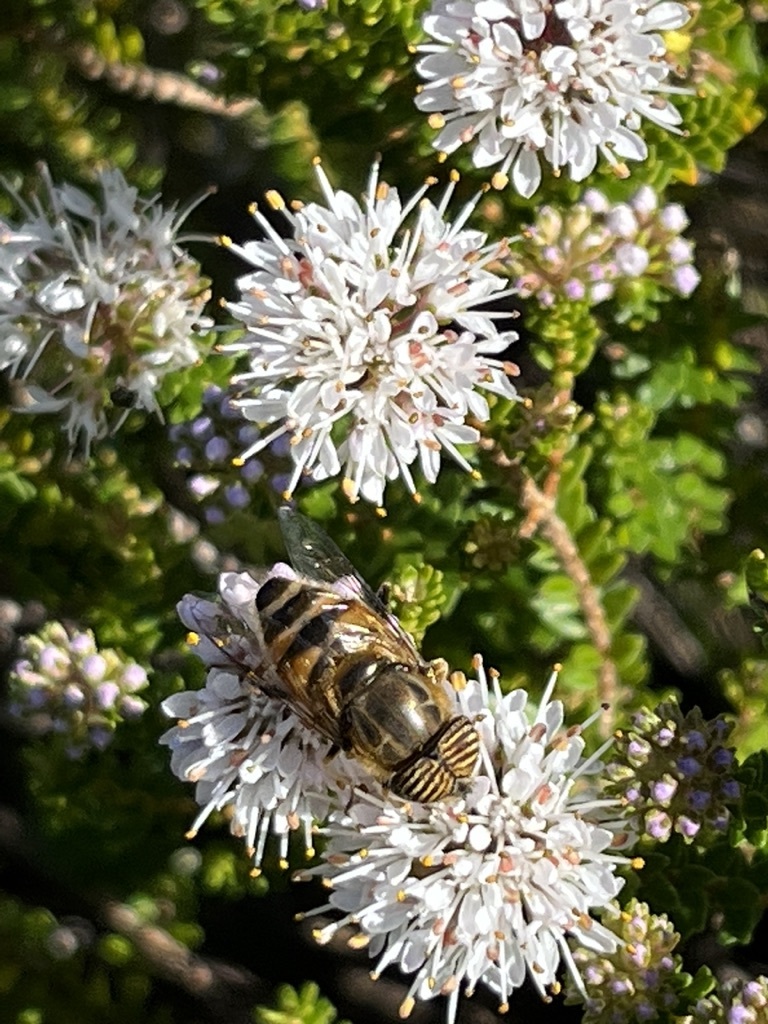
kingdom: Animalia
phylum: Arthropoda
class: Insecta
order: Diptera
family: Syrphidae
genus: Eristalinus
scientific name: Eristalinus taeniops
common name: Syrphid fly
